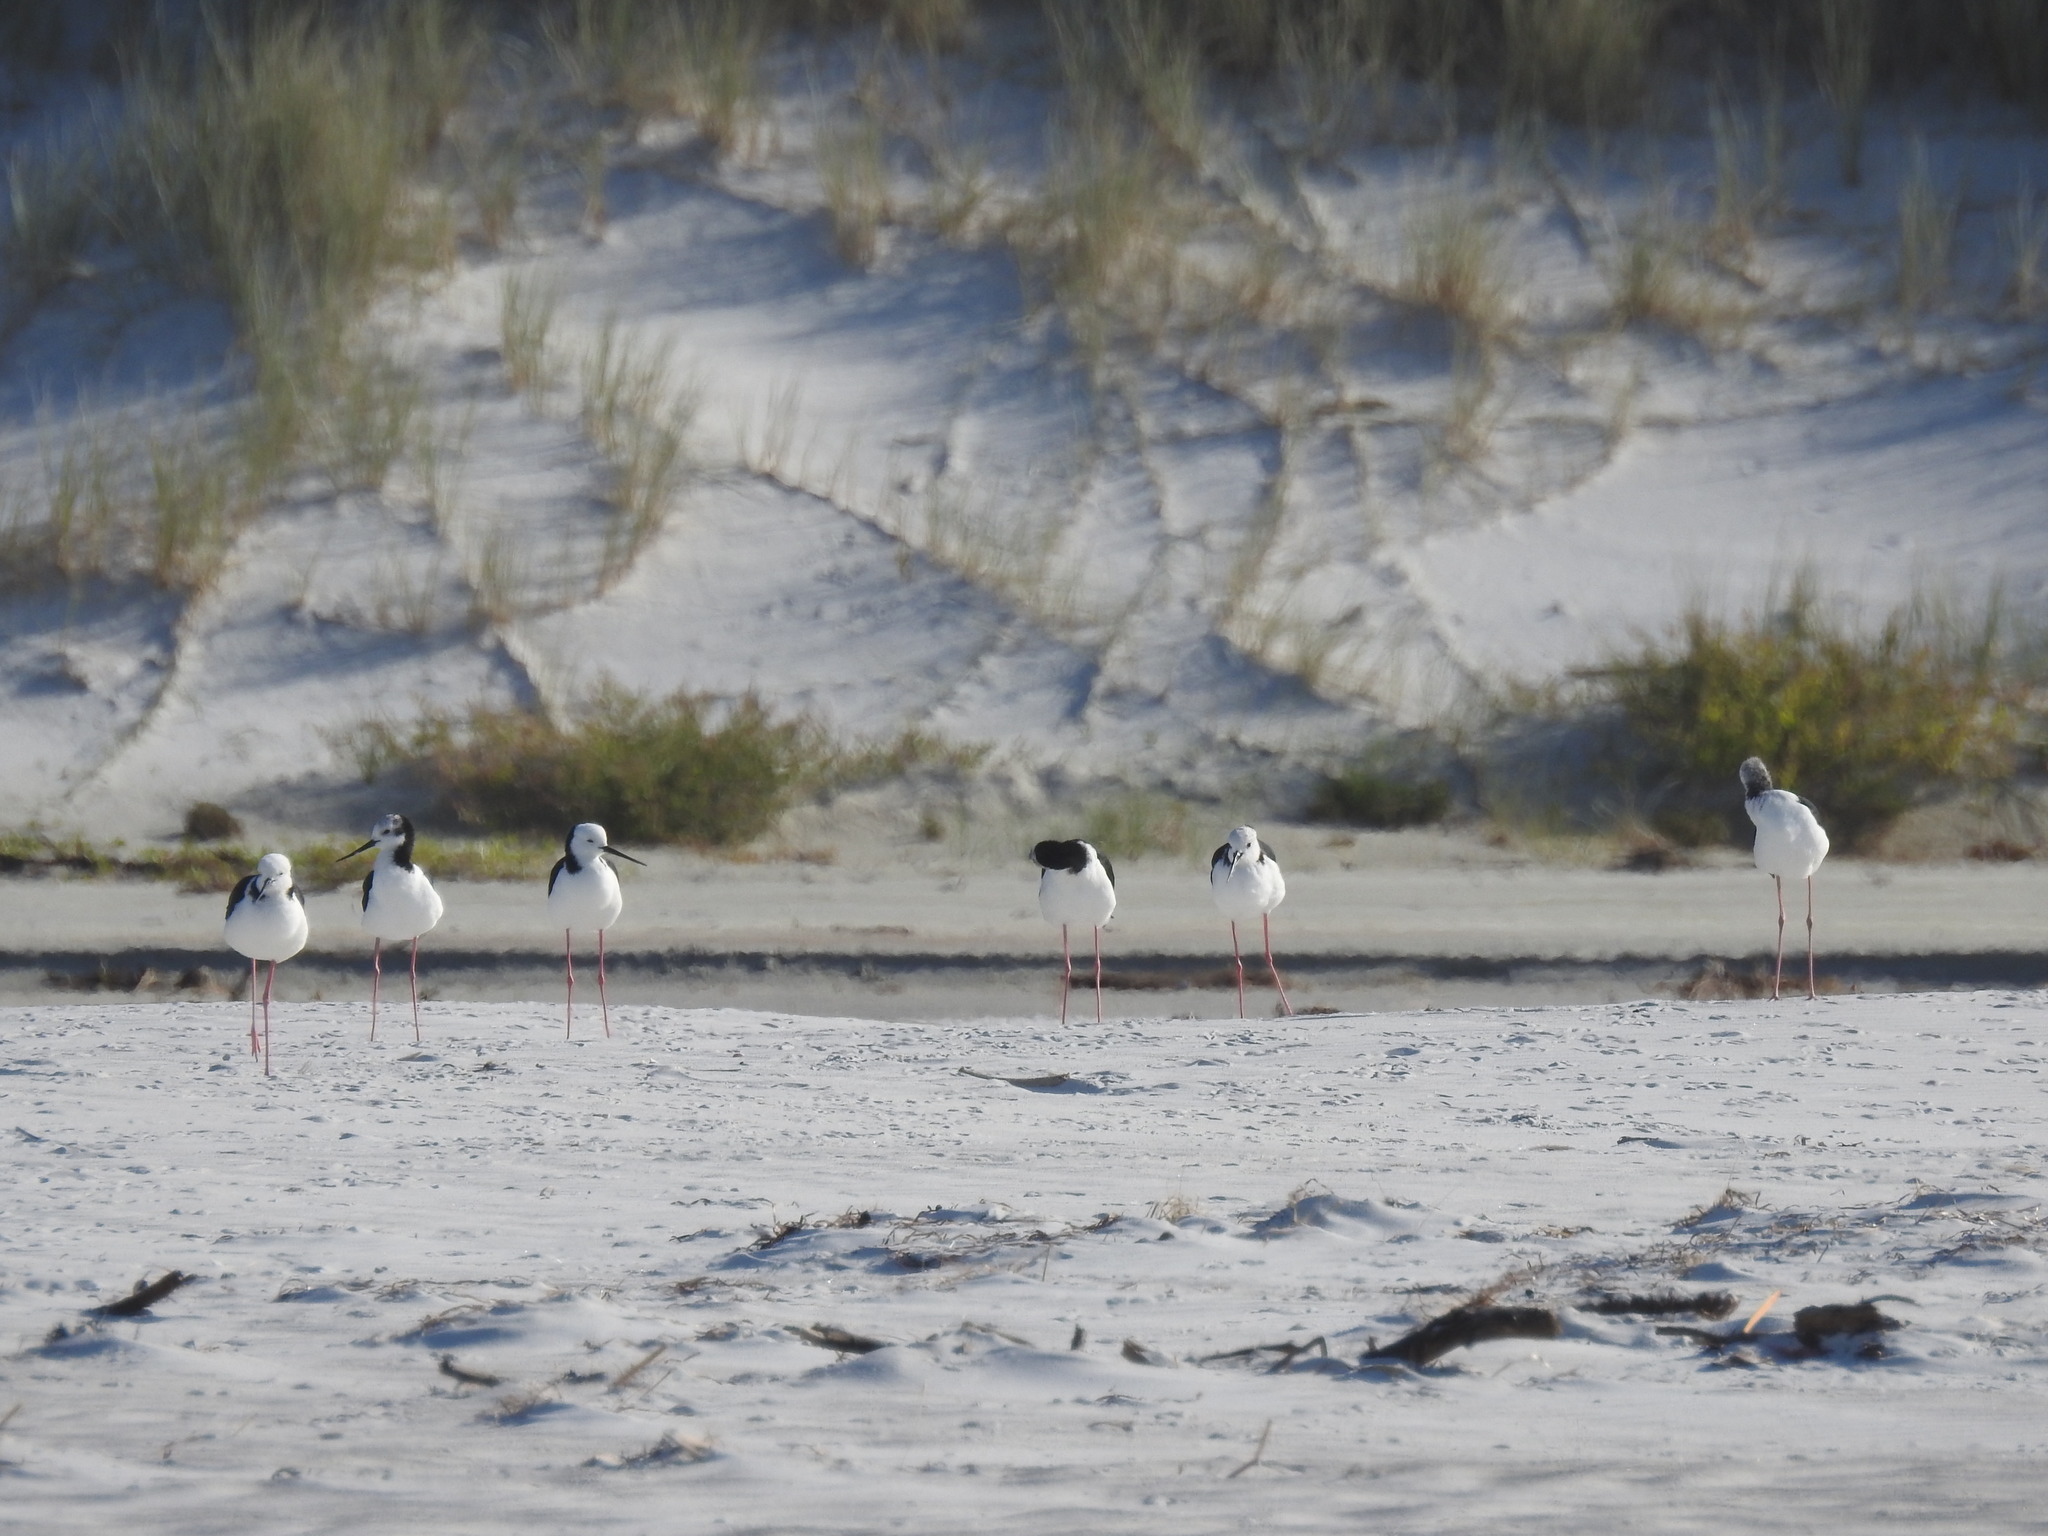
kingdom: Animalia
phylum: Chordata
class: Aves
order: Charadriiformes
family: Recurvirostridae
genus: Himantopus
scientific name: Himantopus leucocephalus
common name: White-headed stilt
